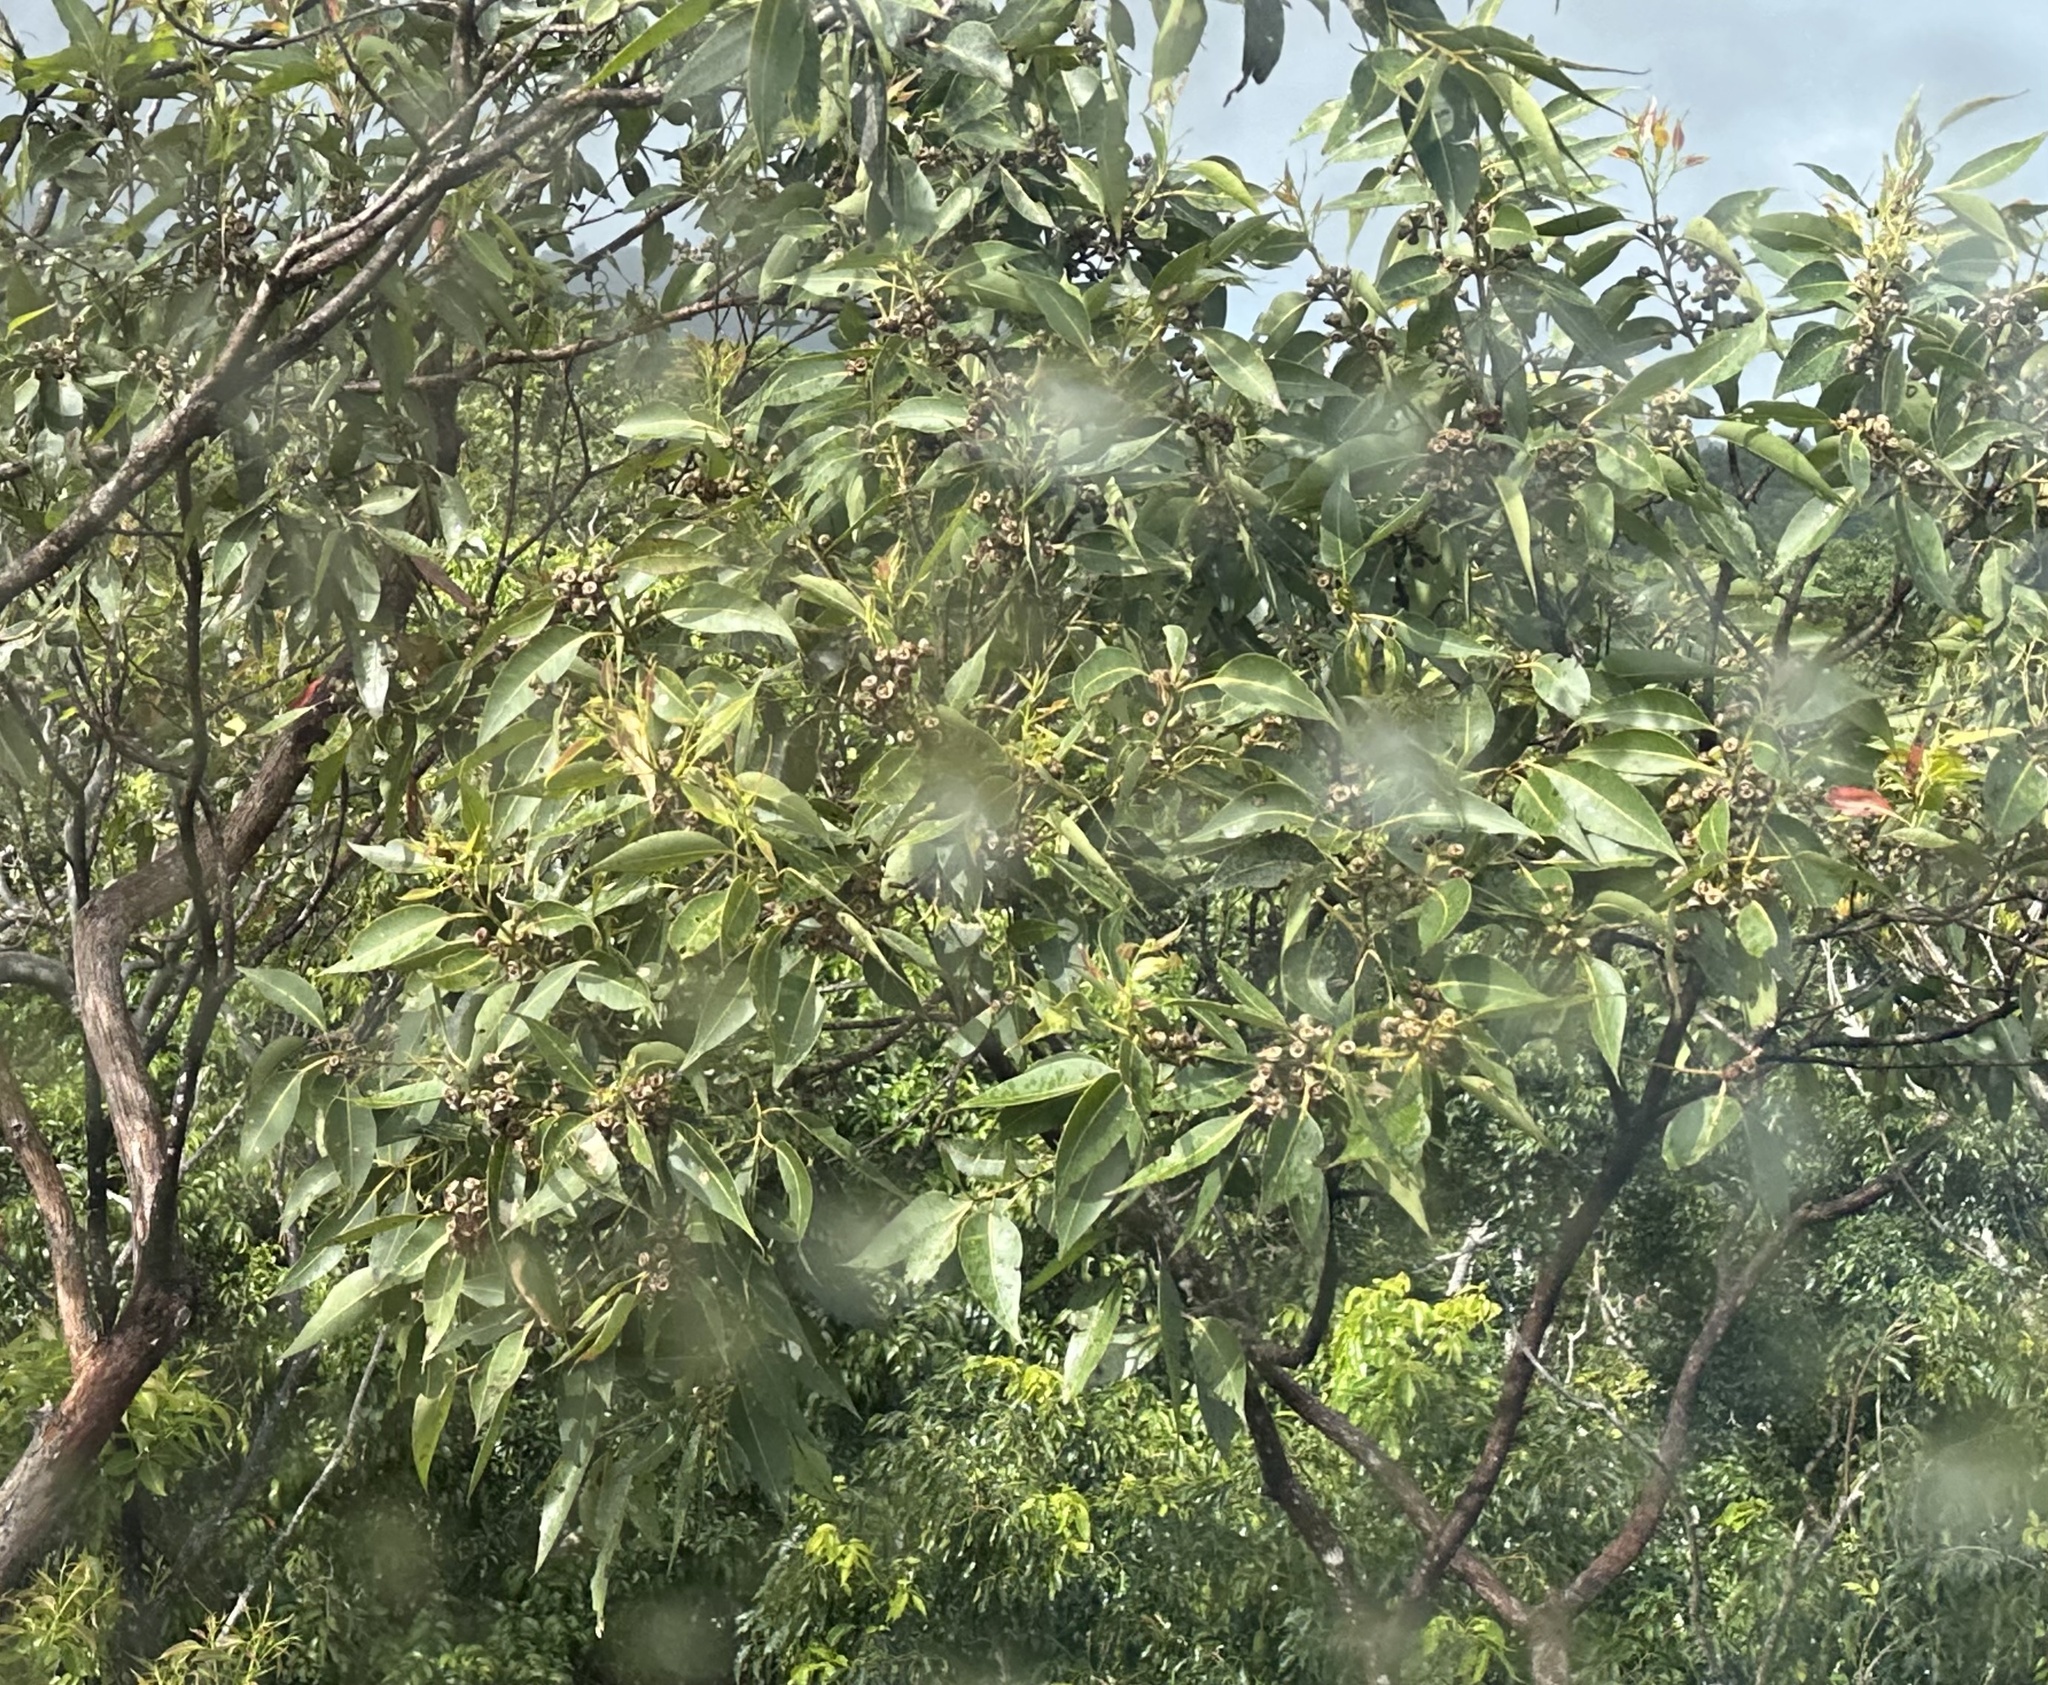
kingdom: Plantae
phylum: Tracheophyta
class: Magnoliopsida
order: Myrtales
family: Myrtaceae
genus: Eucalyptus
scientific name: Eucalyptus pellita
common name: Large-fruited-red-mahogany
